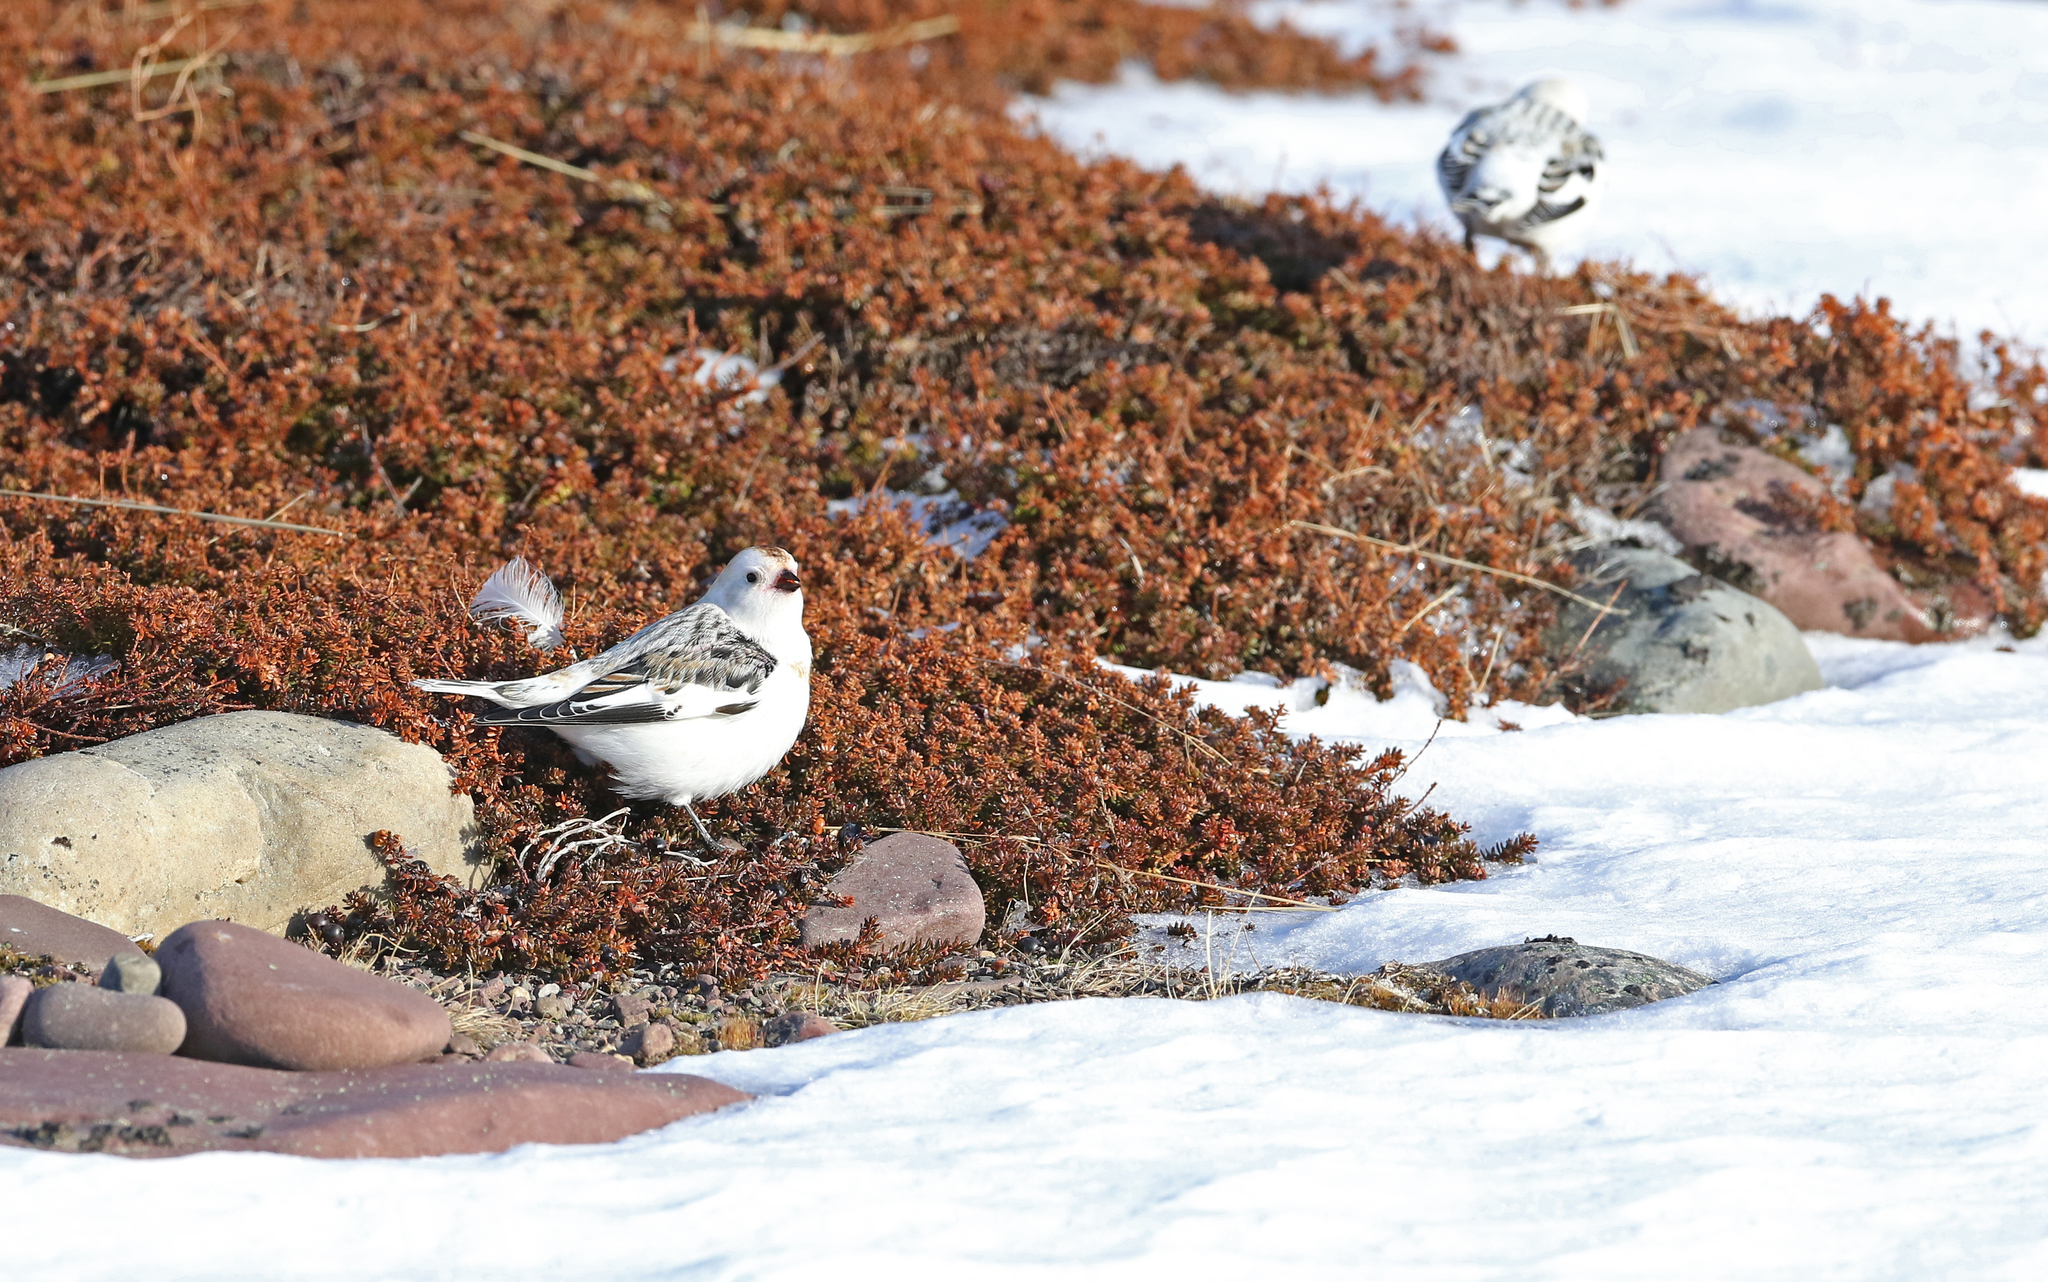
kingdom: Animalia
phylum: Chordata
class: Aves
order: Passeriformes
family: Calcariidae
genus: Plectrophenax
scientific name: Plectrophenax nivalis
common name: Snow bunting
